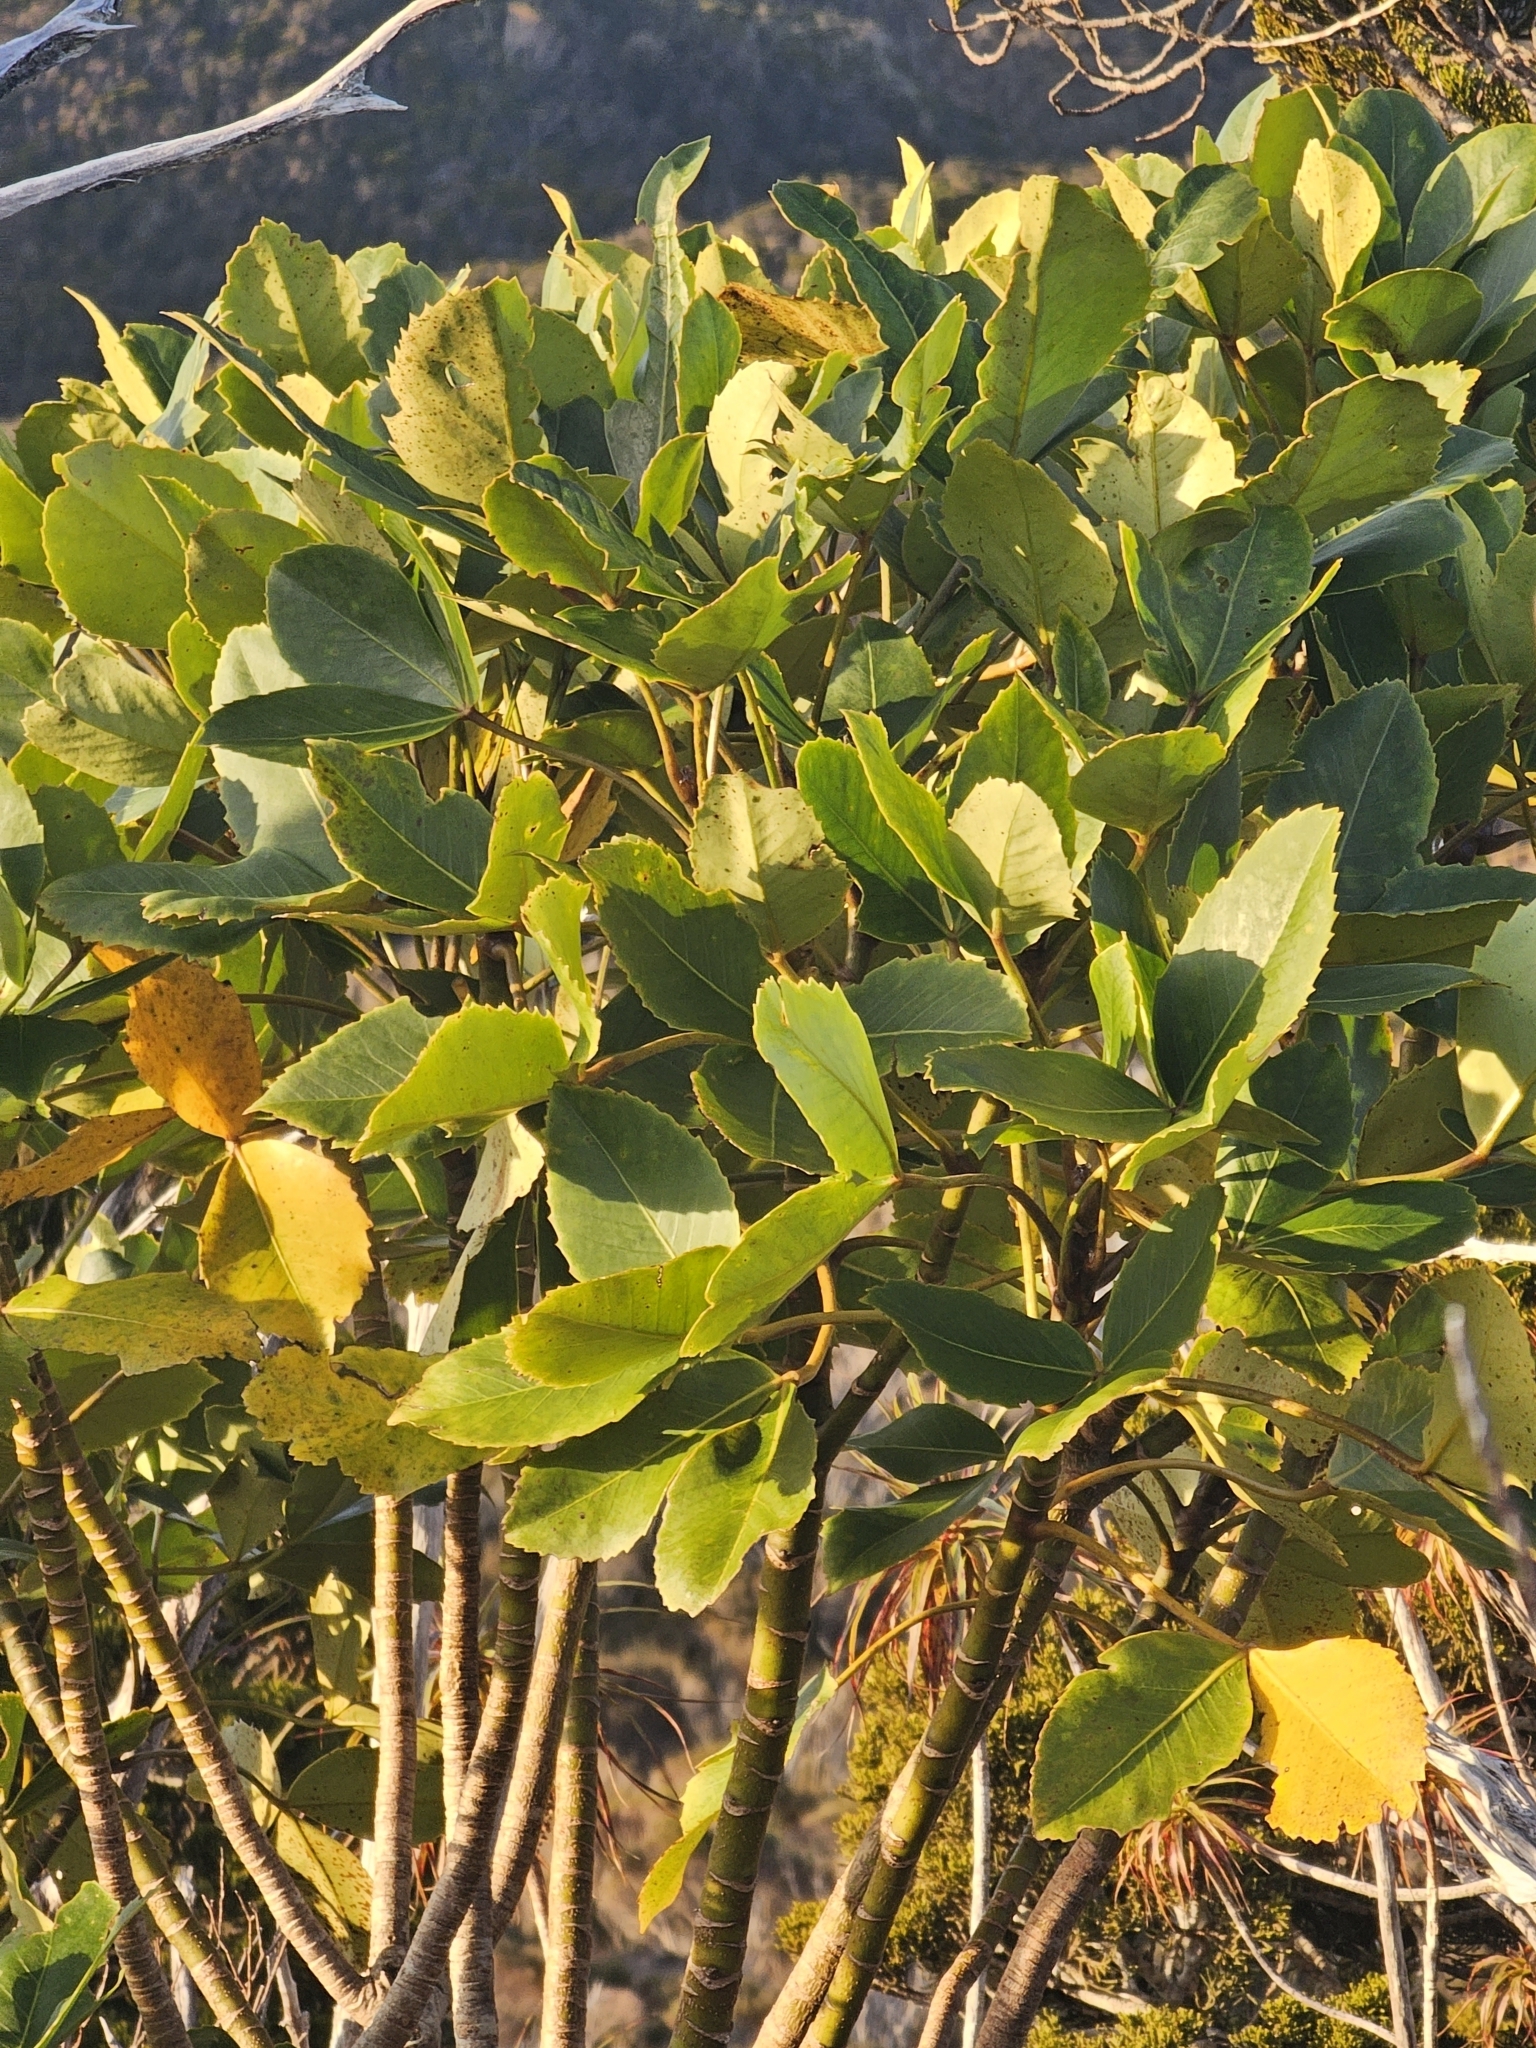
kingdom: Plantae
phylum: Tracheophyta
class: Magnoliopsida
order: Apiales
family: Araliaceae
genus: Neopanax
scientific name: Neopanax colensoi
